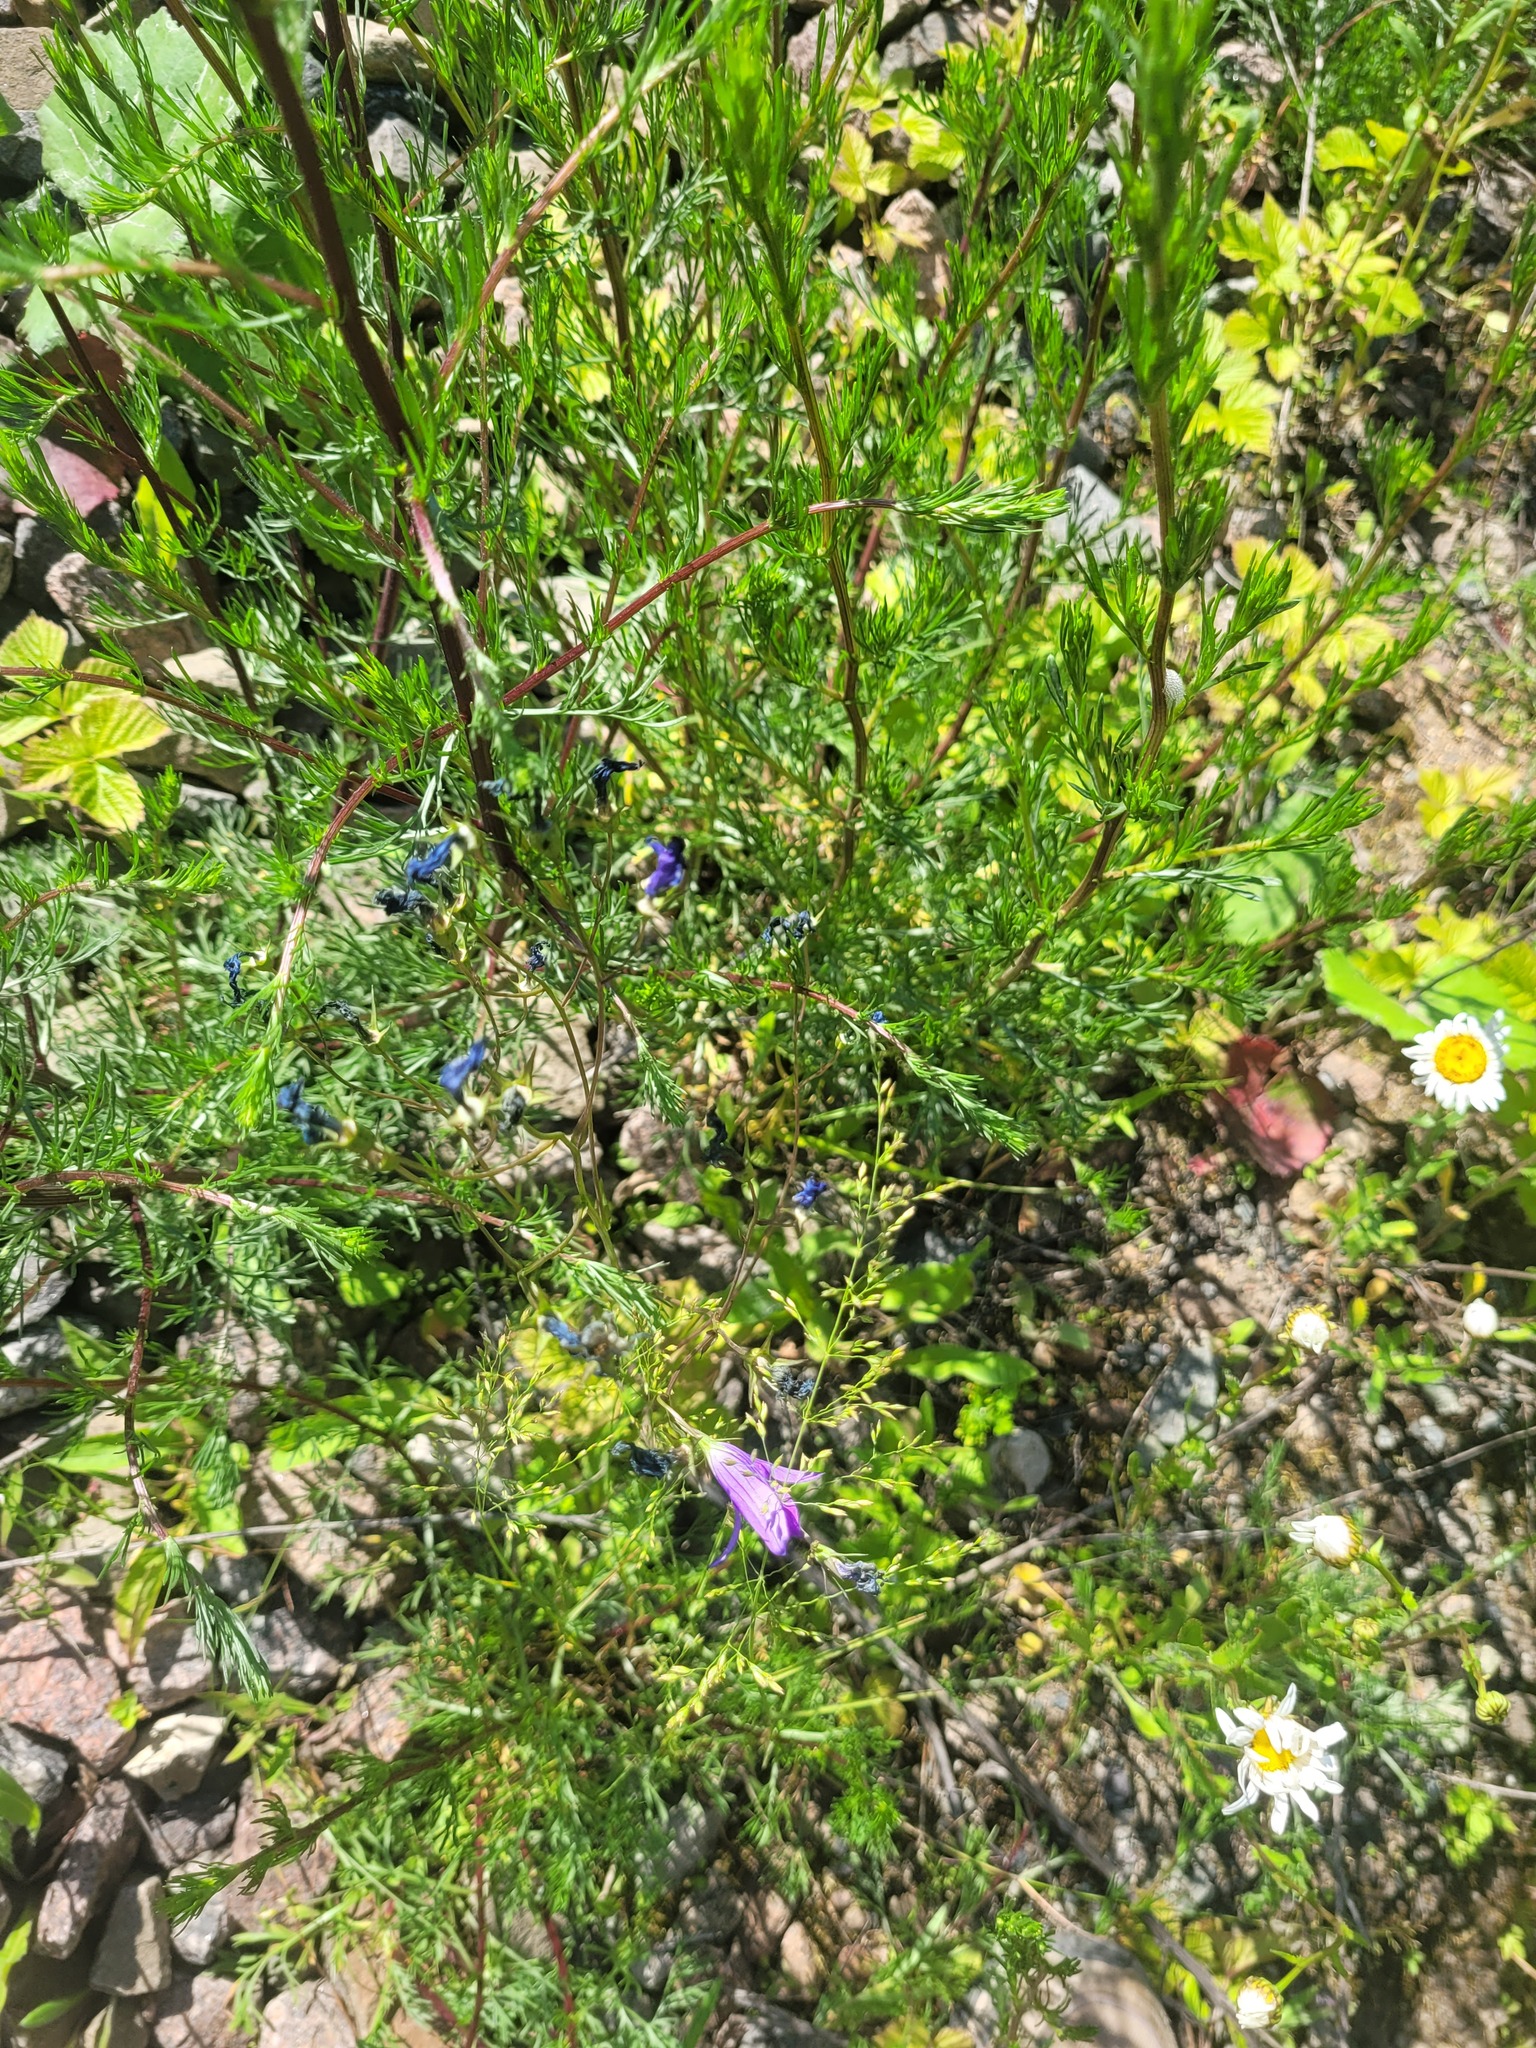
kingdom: Plantae
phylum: Tracheophyta
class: Magnoliopsida
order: Asterales
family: Campanulaceae
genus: Campanula
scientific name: Campanula patula
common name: Spreading bellflower
